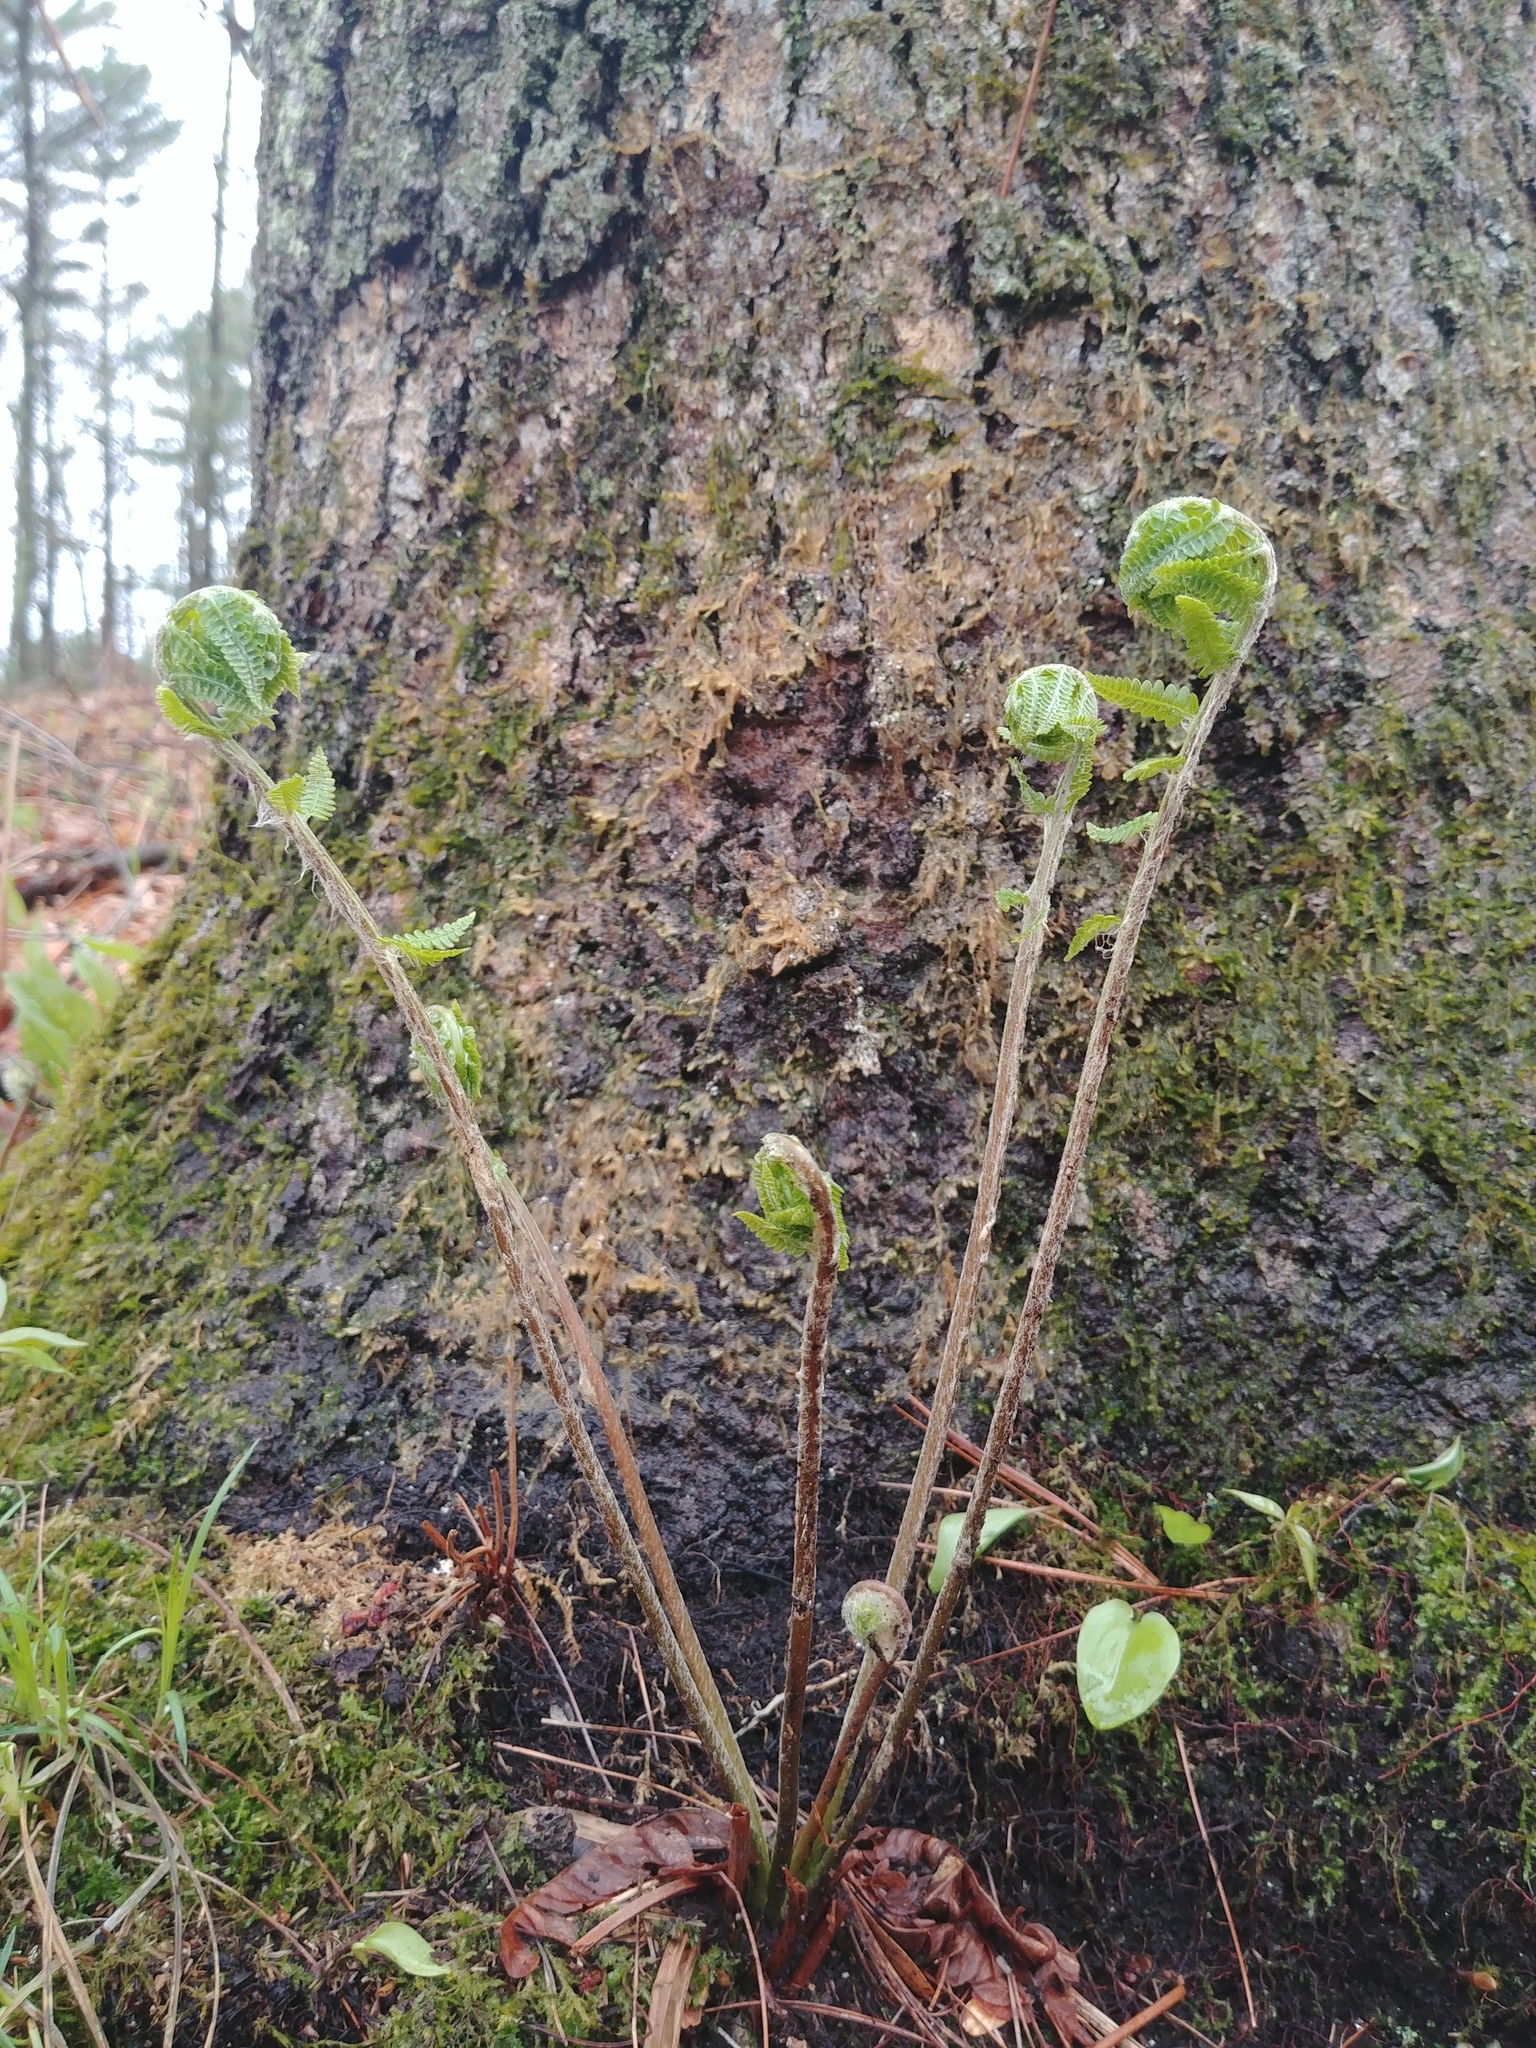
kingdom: Plantae
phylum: Tracheophyta
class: Polypodiopsida
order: Osmundales
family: Osmundaceae
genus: Osmundastrum
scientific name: Osmundastrum cinnamomeum
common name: Cinnamon fern
